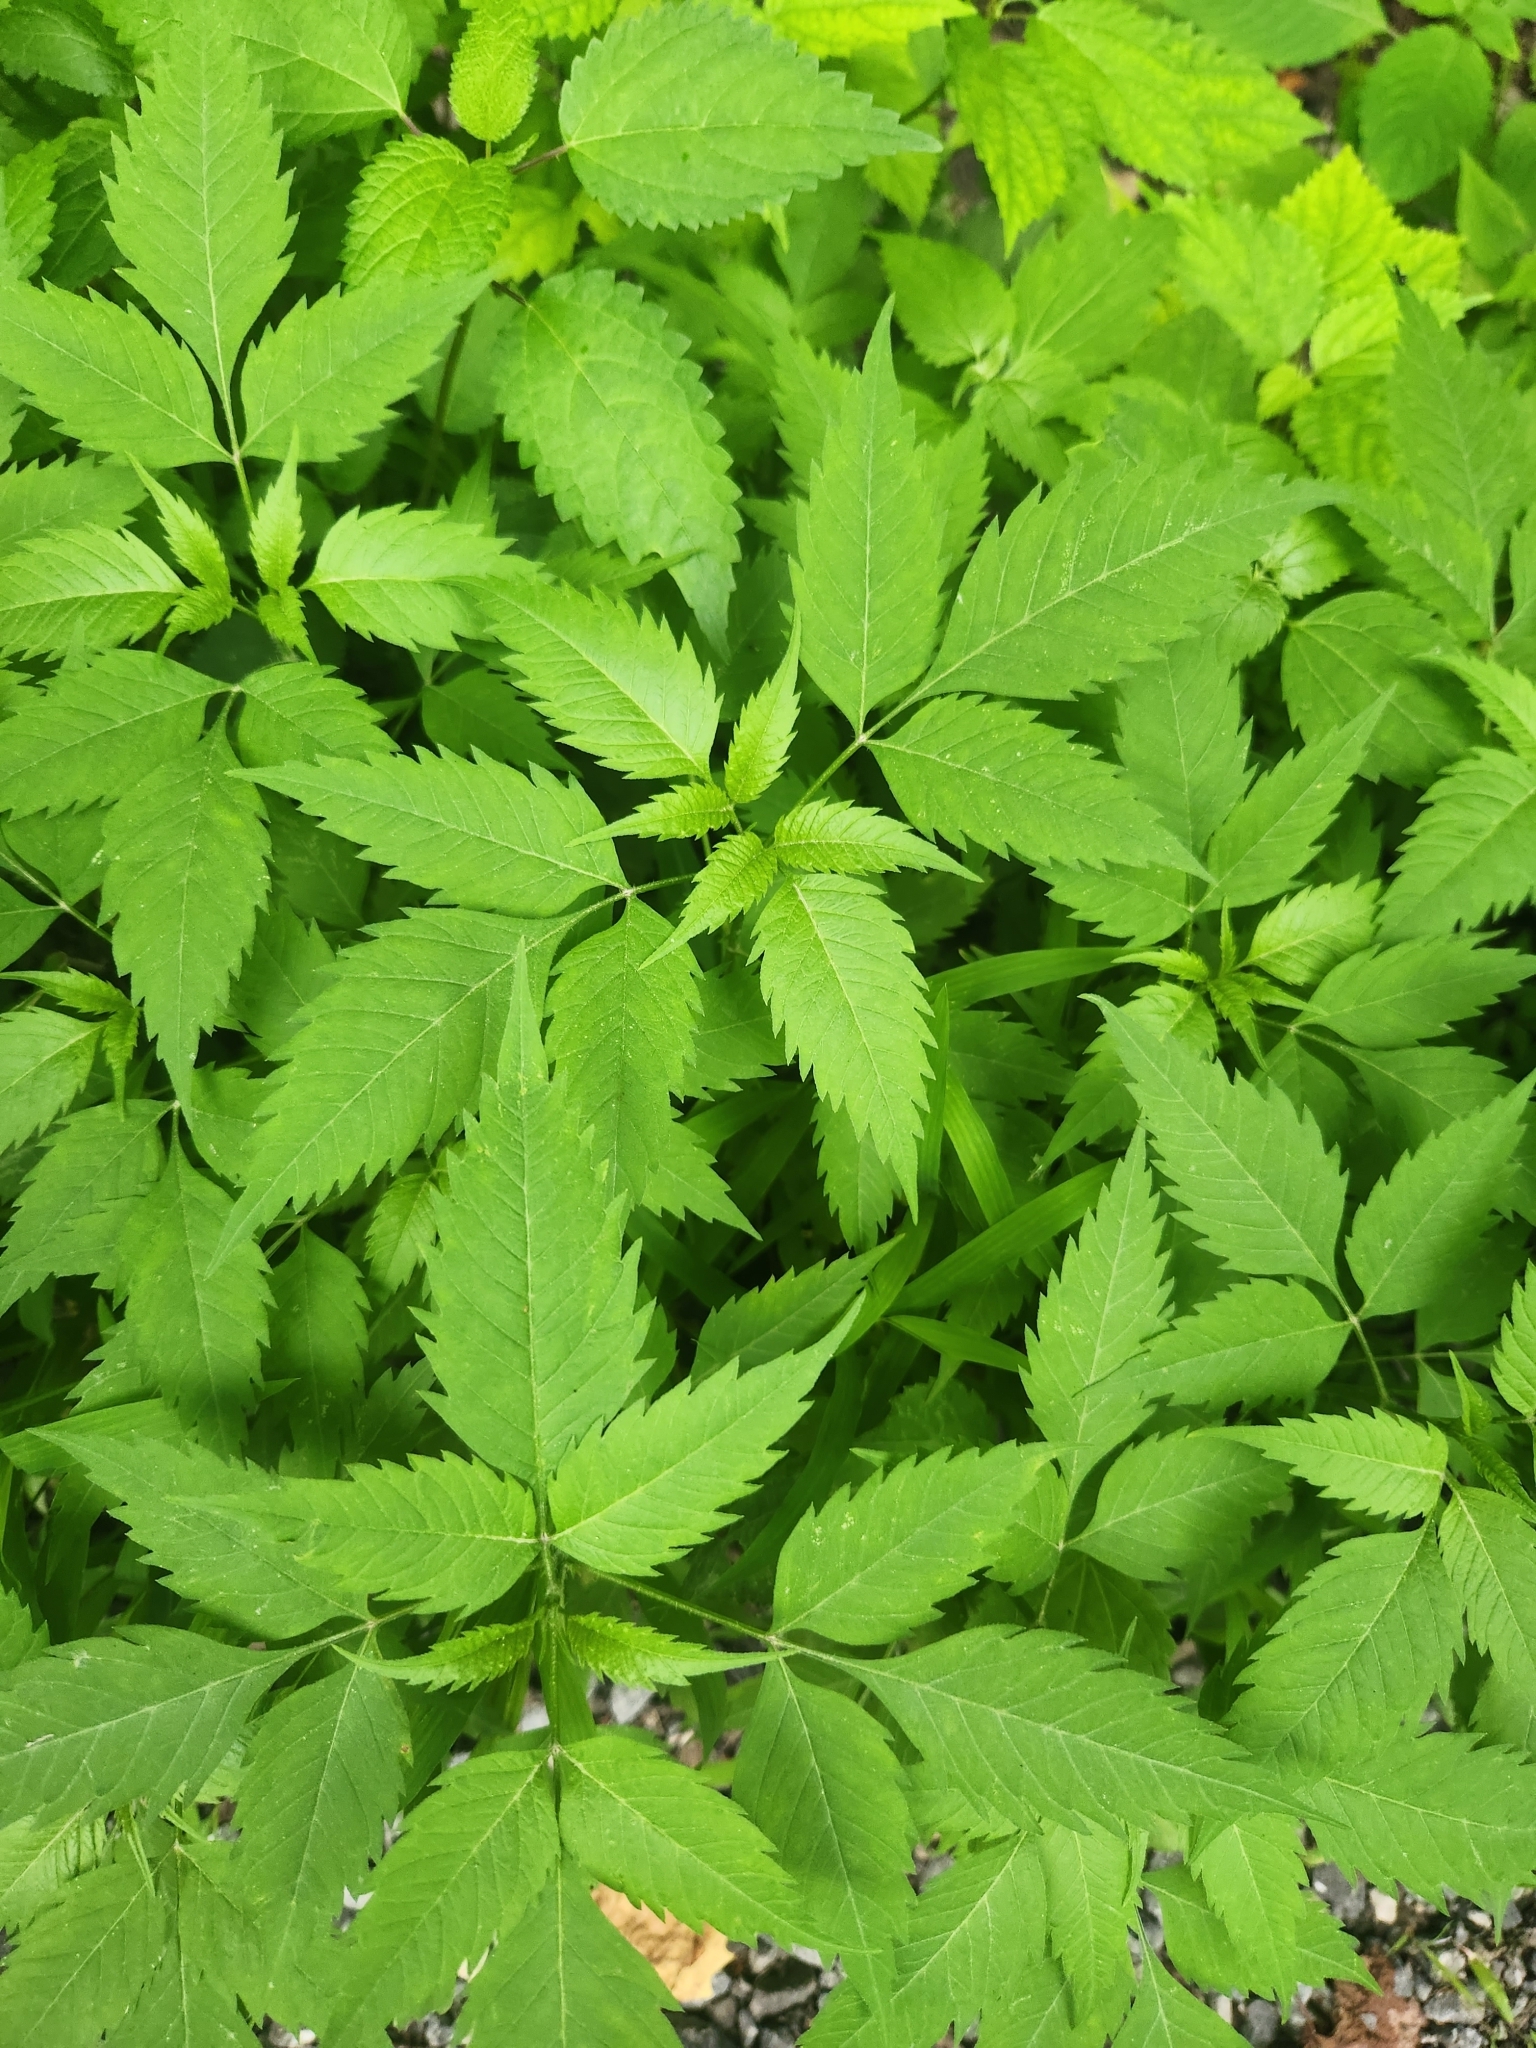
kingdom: Plantae
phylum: Tracheophyta
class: Magnoliopsida
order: Asterales
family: Asteraceae
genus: Bidens
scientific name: Bidens frondosa
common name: Beggarticks
